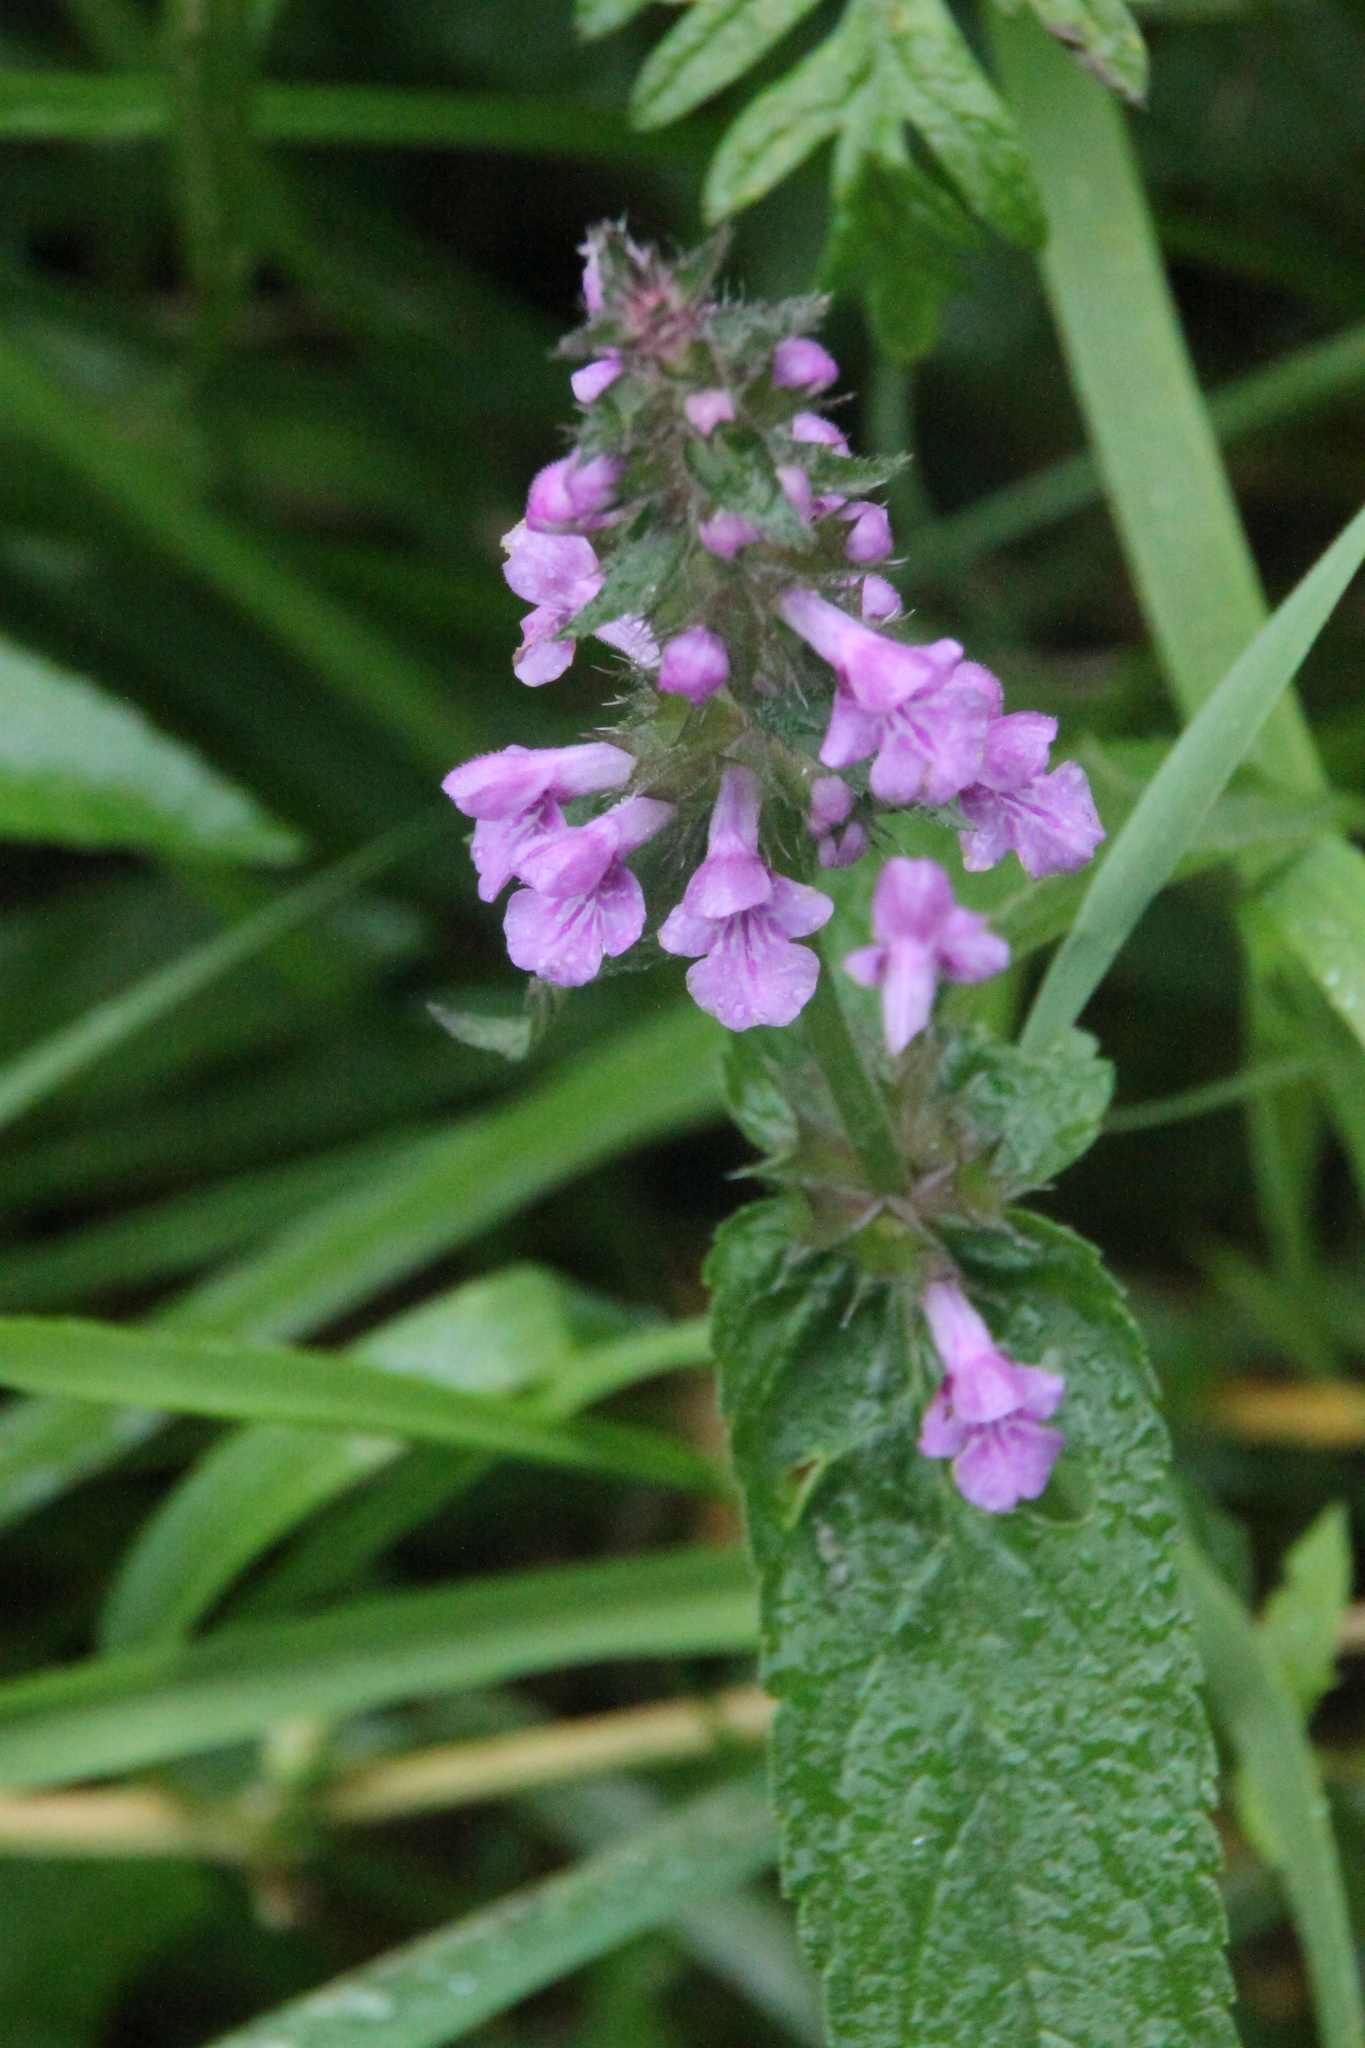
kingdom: Plantae
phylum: Tracheophyta
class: Magnoliopsida
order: Lamiales
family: Lamiaceae
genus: Stachys
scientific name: Stachys palustris
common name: Marsh woundwort
